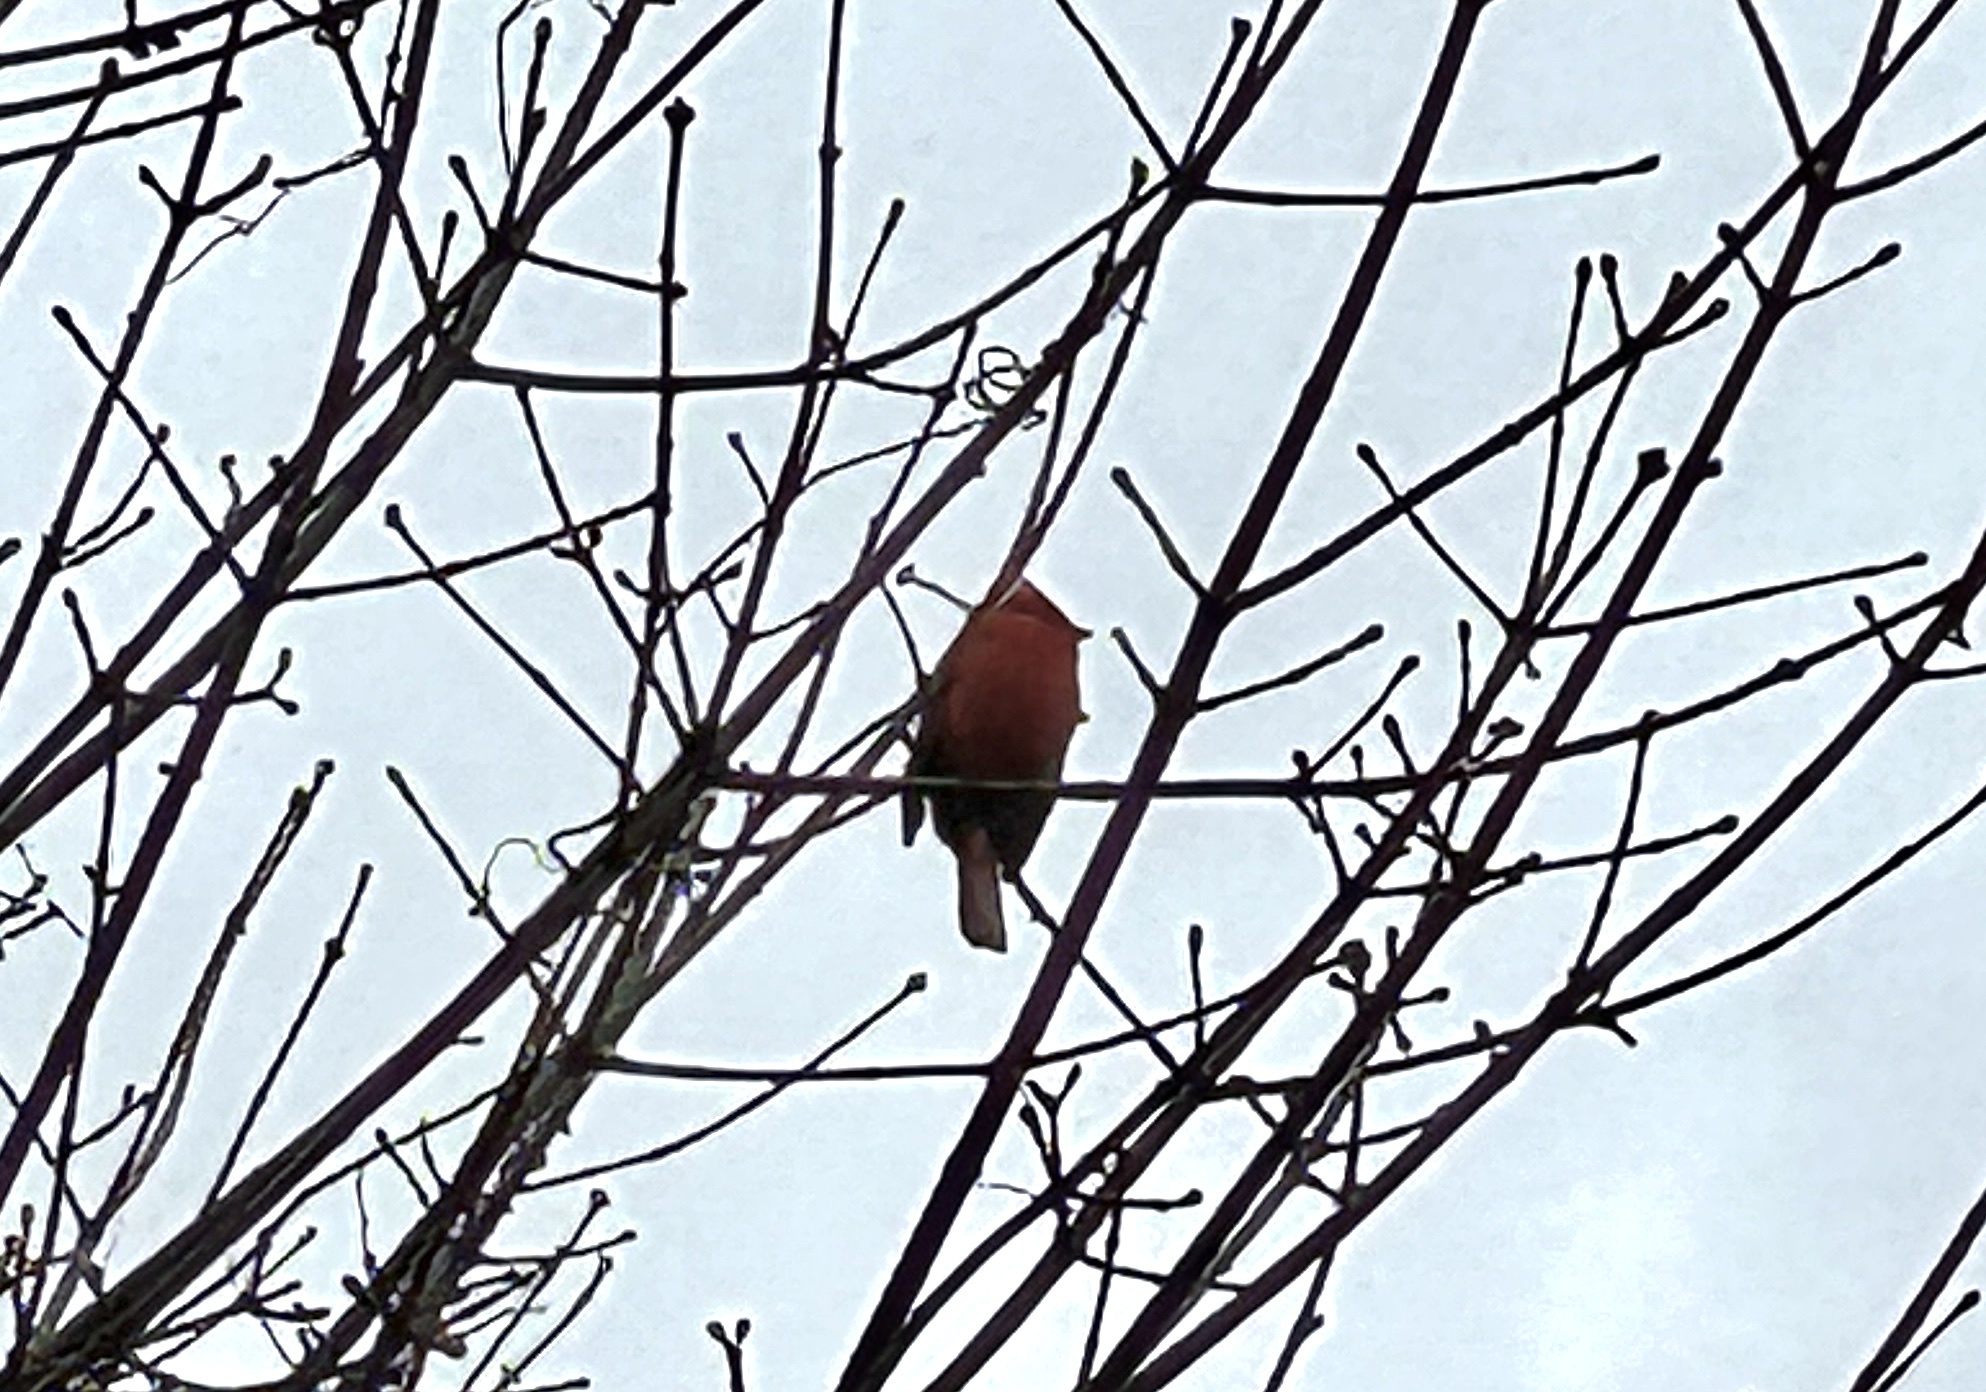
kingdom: Animalia
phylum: Chordata
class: Aves
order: Passeriformes
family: Cardinalidae
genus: Cardinalis
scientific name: Cardinalis cardinalis
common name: Northern cardinal
